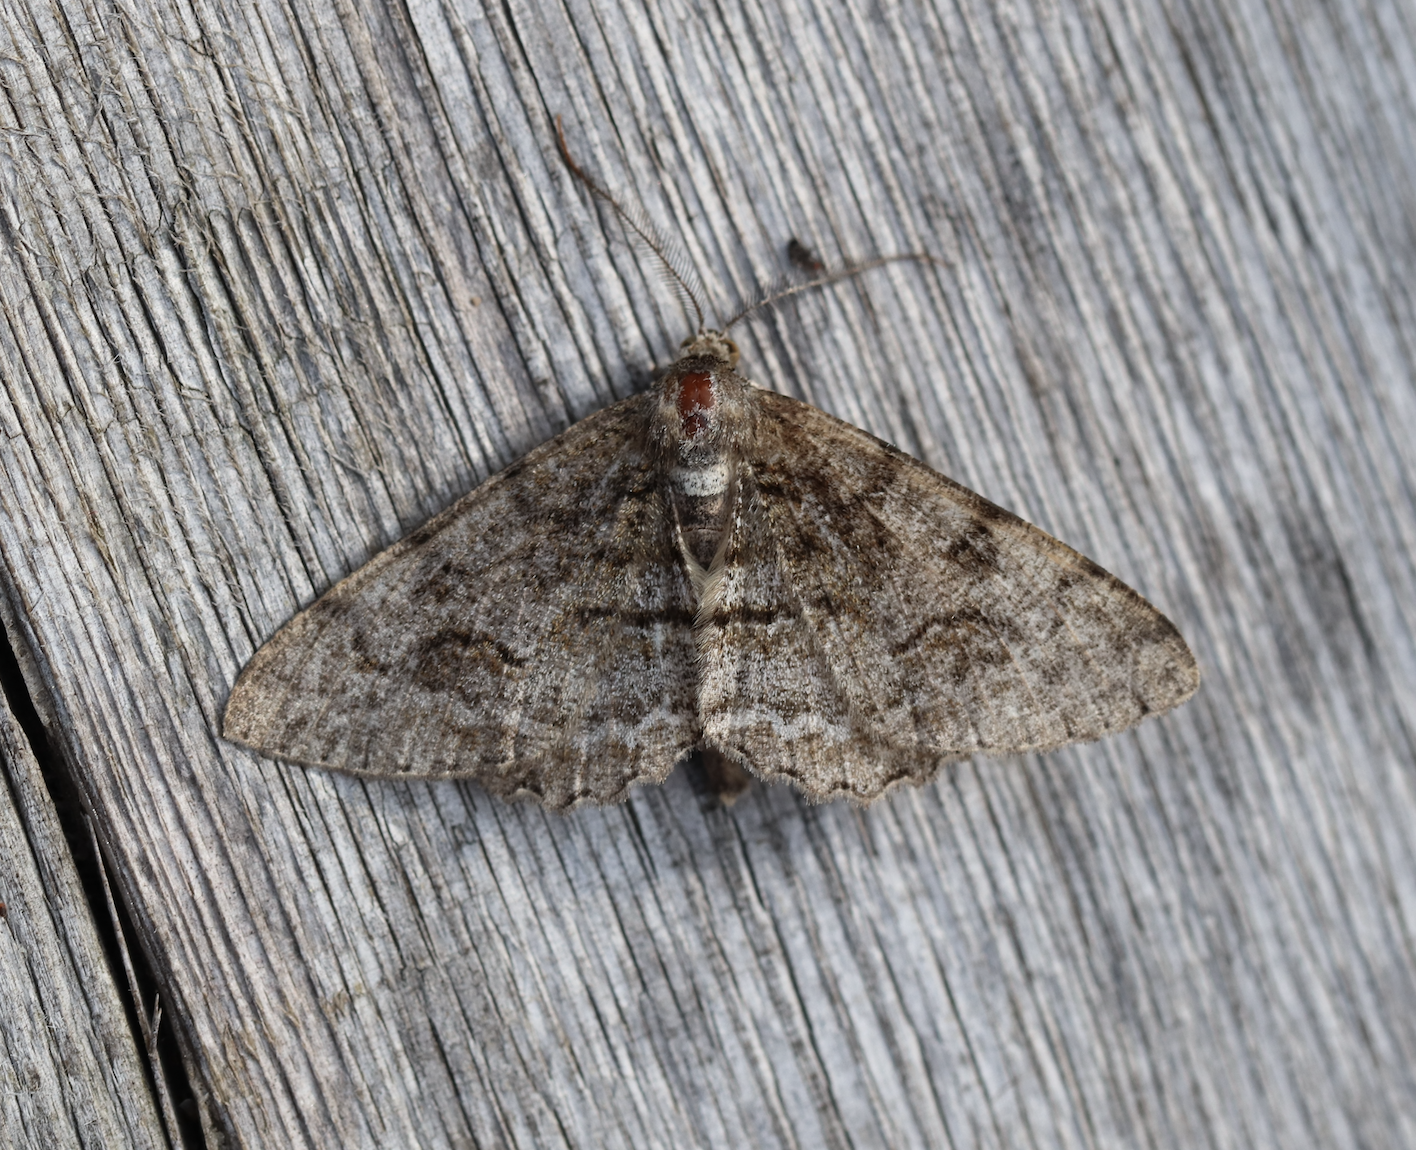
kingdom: Animalia
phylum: Arthropoda
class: Insecta
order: Lepidoptera
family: Geometridae
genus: Alcis
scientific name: Alcis repandata
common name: Mottled beauty
